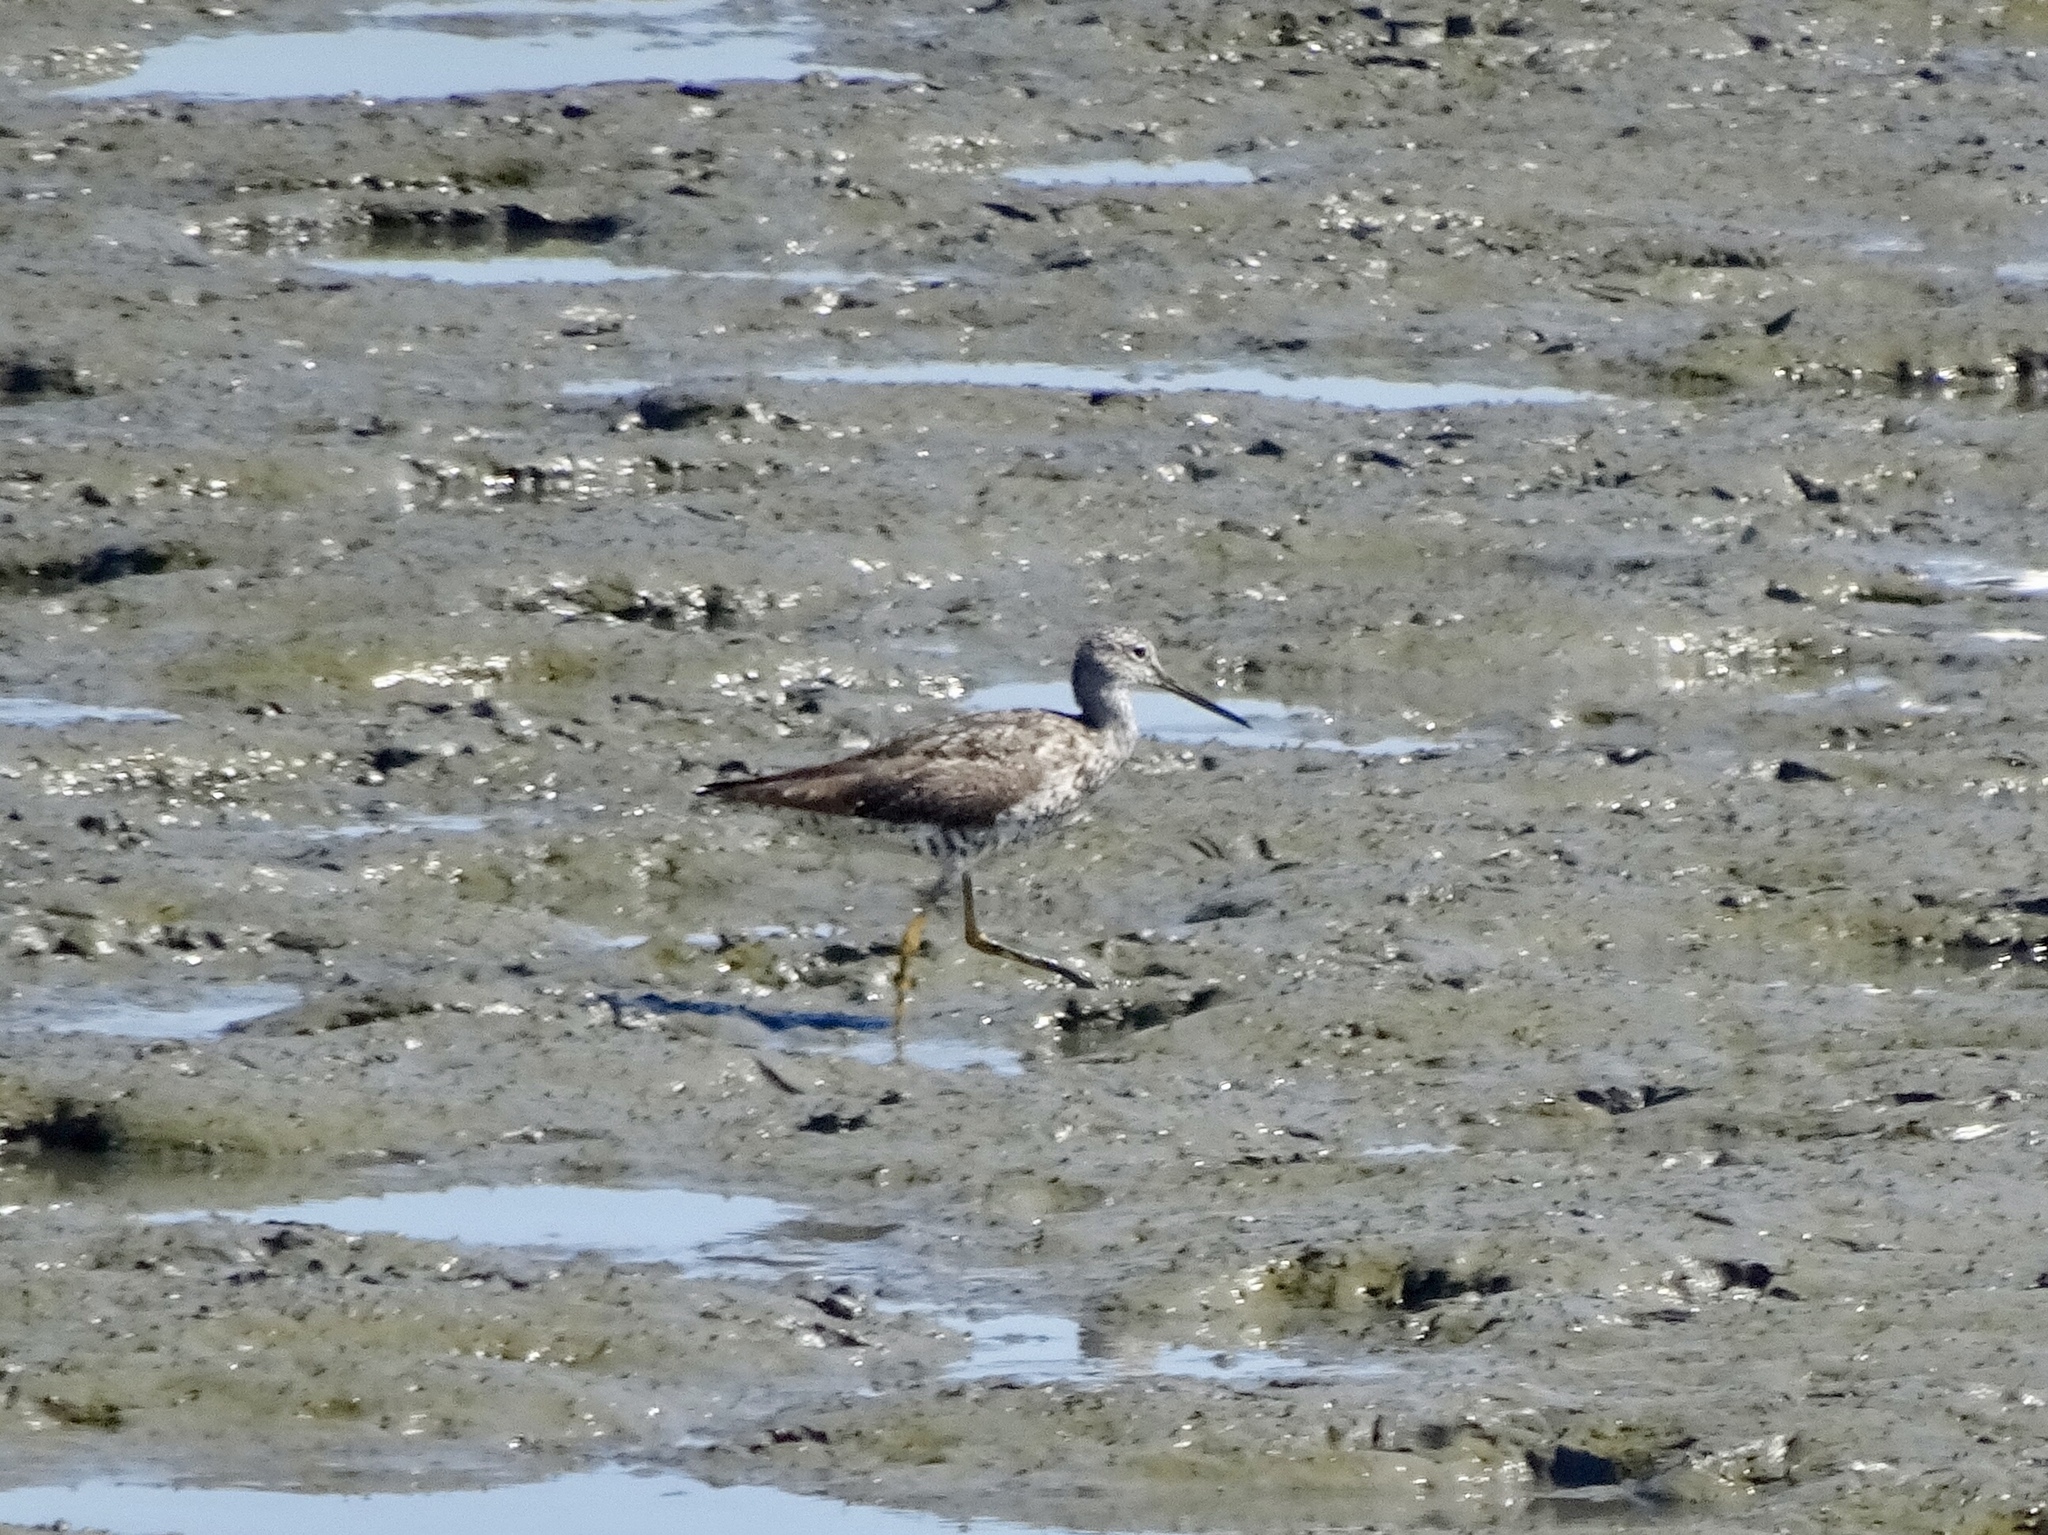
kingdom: Animalia
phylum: Chordata
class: Aves
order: Charadriiformes
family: Scolopacidae
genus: Tringa
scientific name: Tringa melanoleuca
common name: Greater yellowlegs
